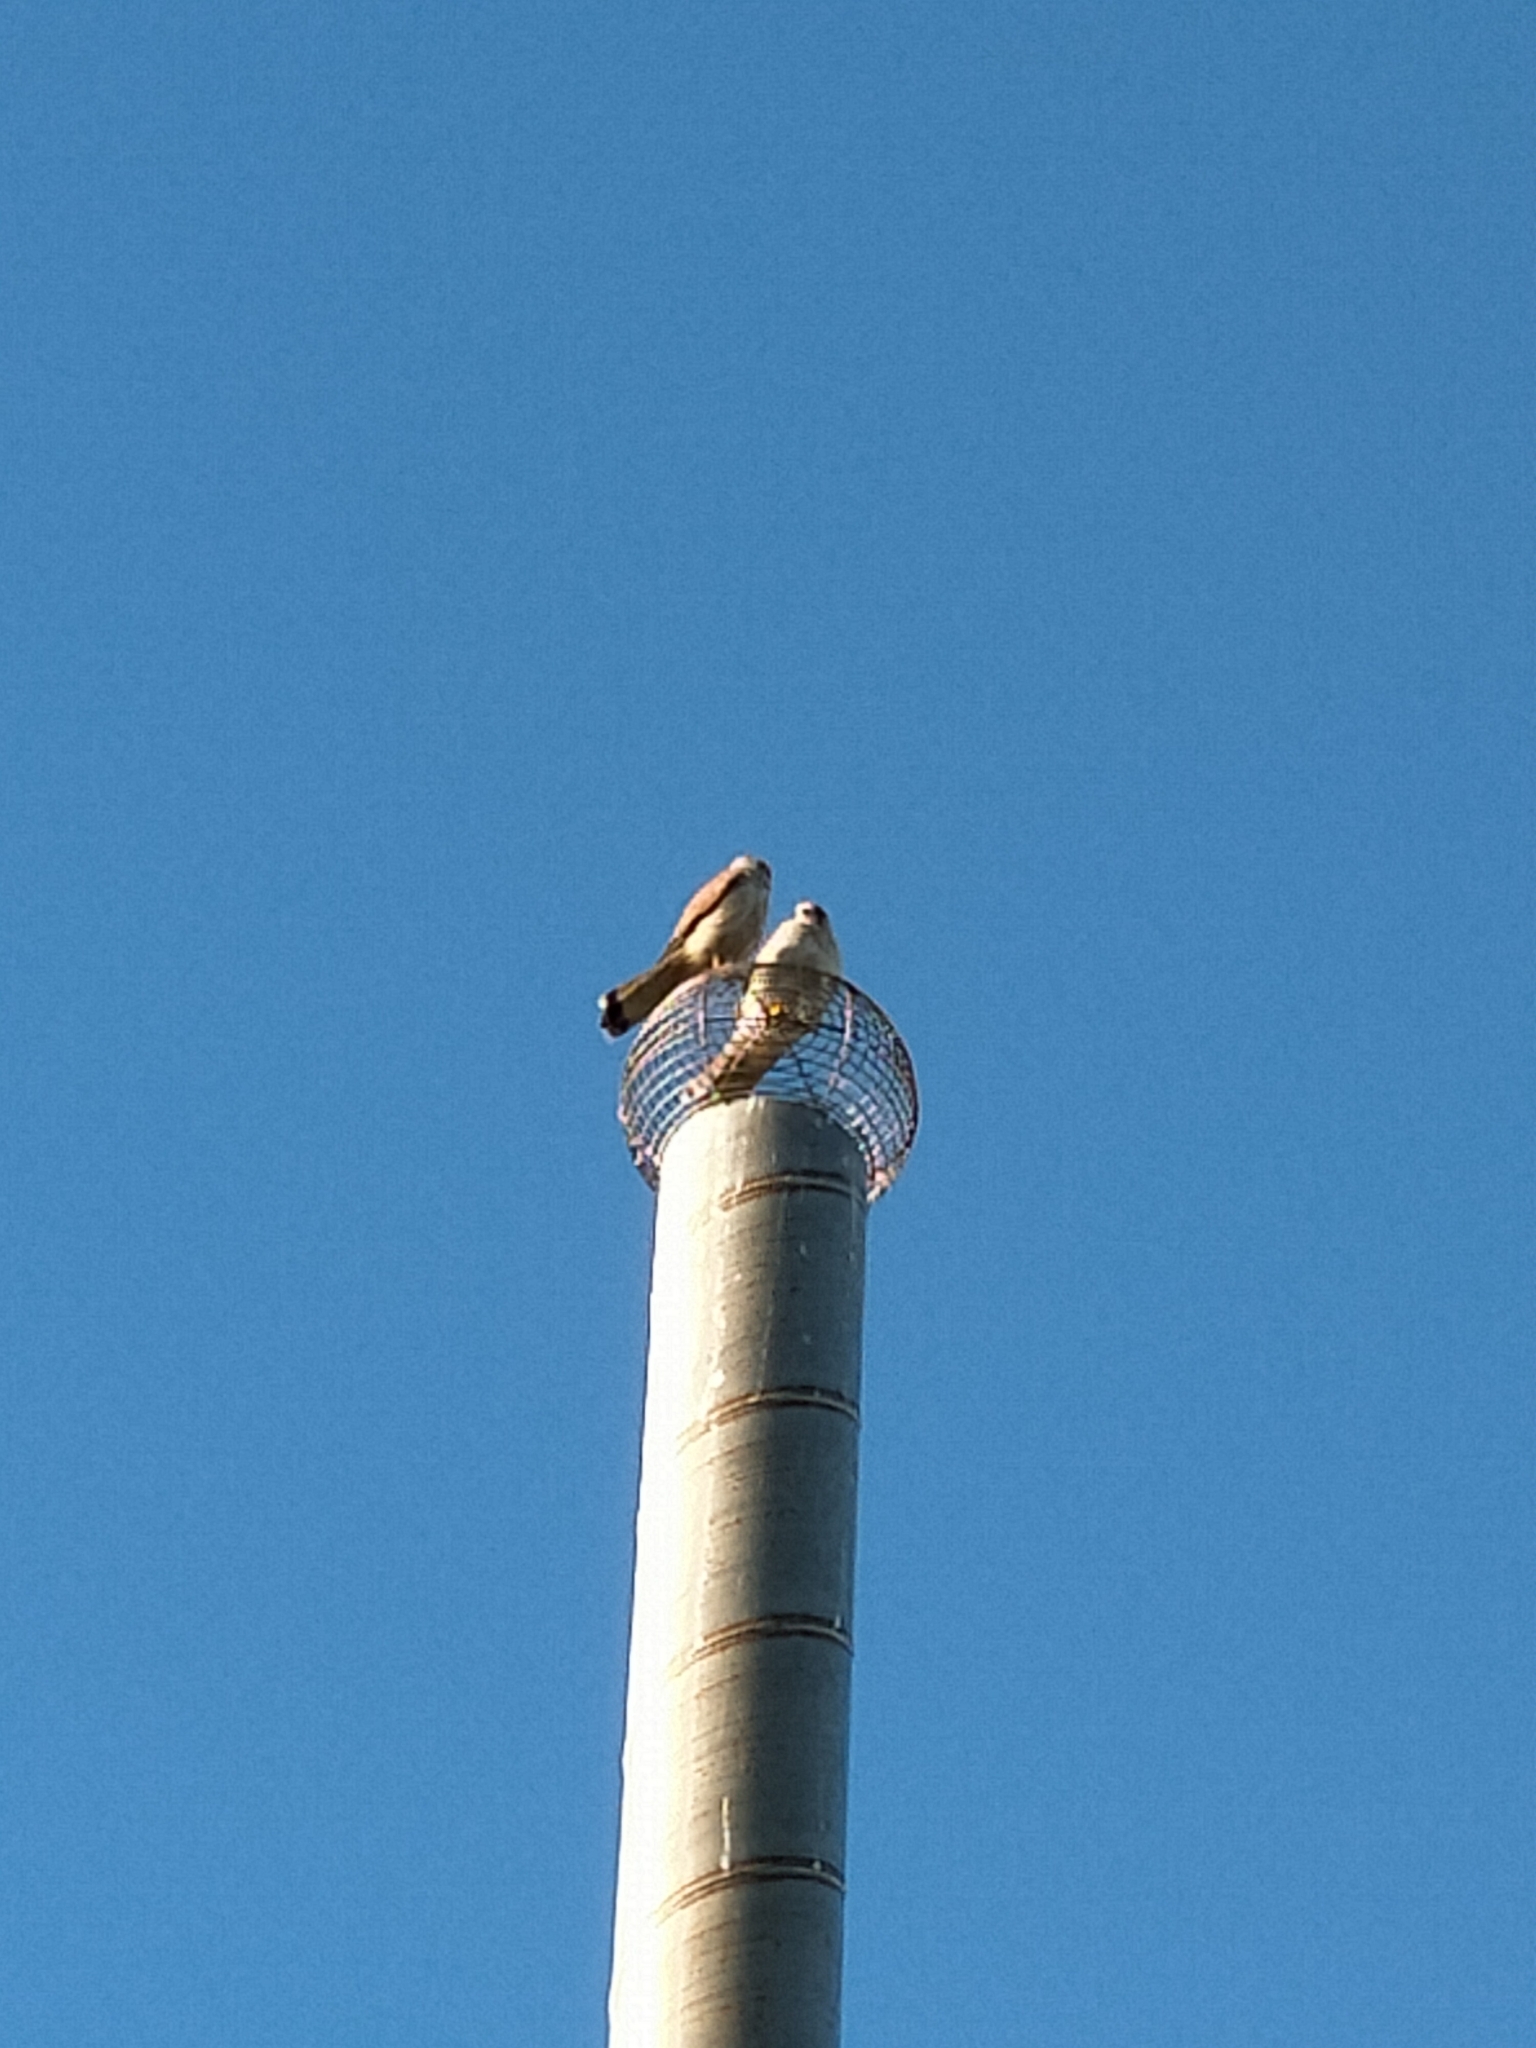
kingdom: Animalia
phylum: Chordata
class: Aves
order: Falconiformes
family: Falconidae
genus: Falco
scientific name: Falco cenchroides
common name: Nankeen kestrel
